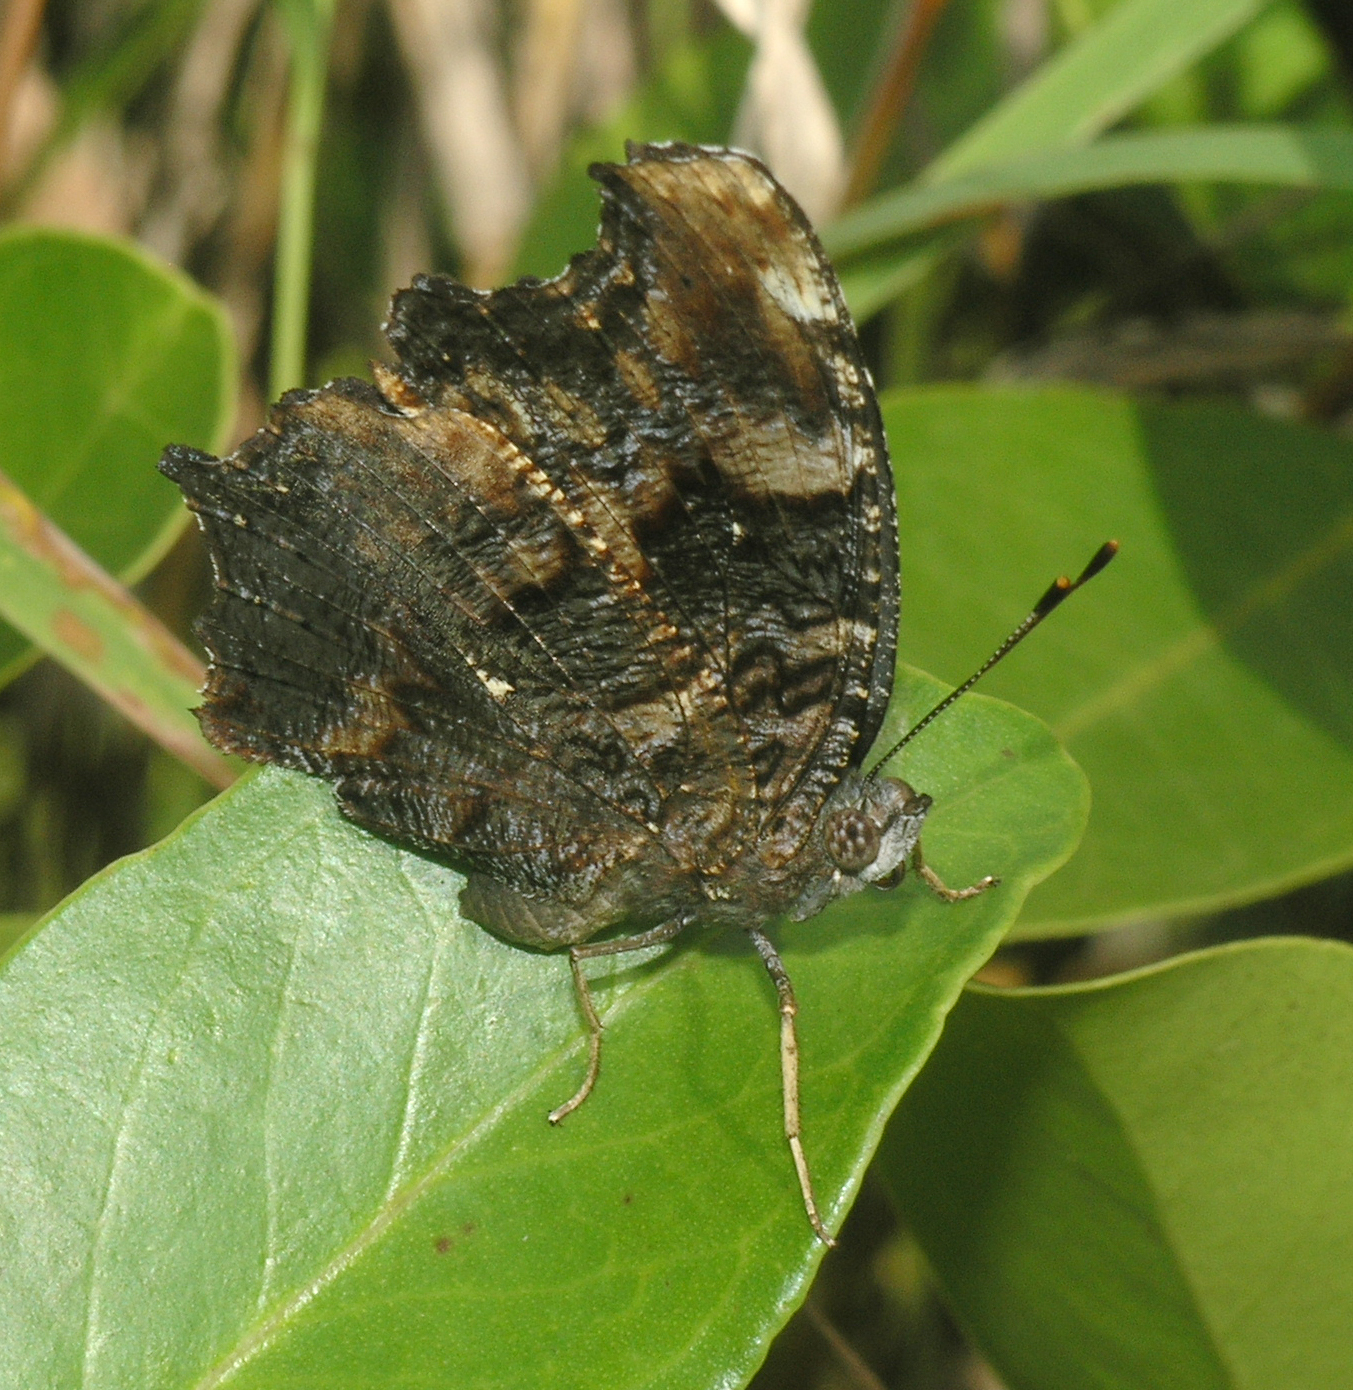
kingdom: Animalia
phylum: Arthropoda
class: Insecta
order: Lepidoptera
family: Nymphalidae
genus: Vanessa
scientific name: Vanessa Kaniska canace
